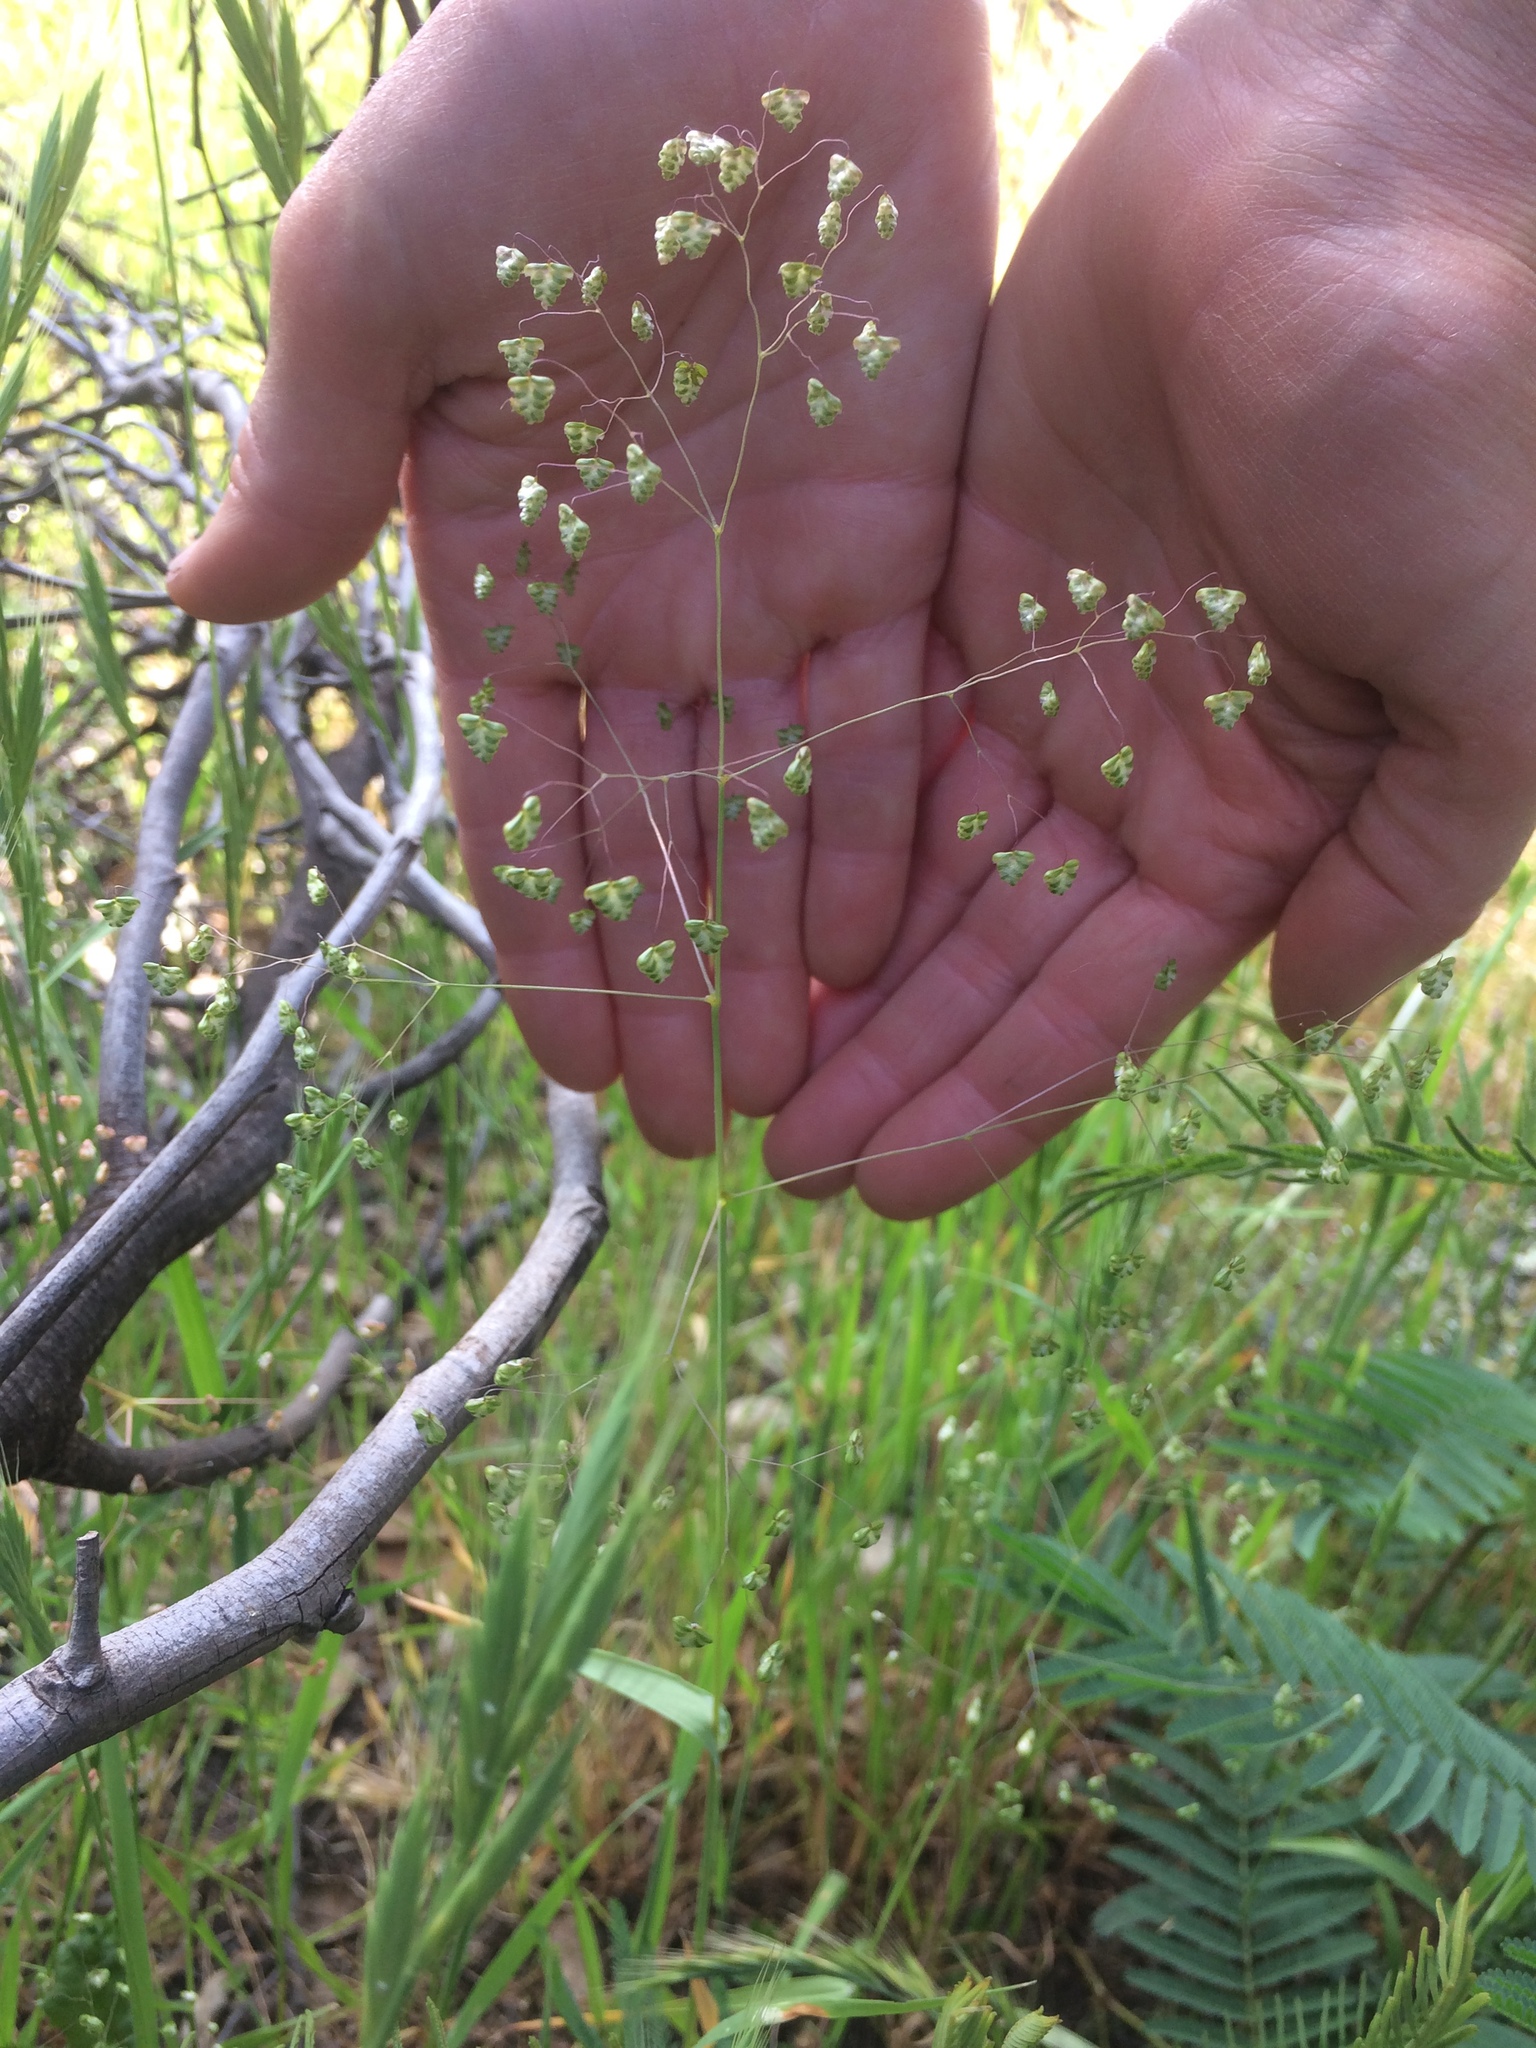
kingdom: Plantae
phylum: Tracheophyta
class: Liliopsida
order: Poales
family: Poaceae
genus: Briza
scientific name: Briza minor
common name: Lesser quaking-grass
